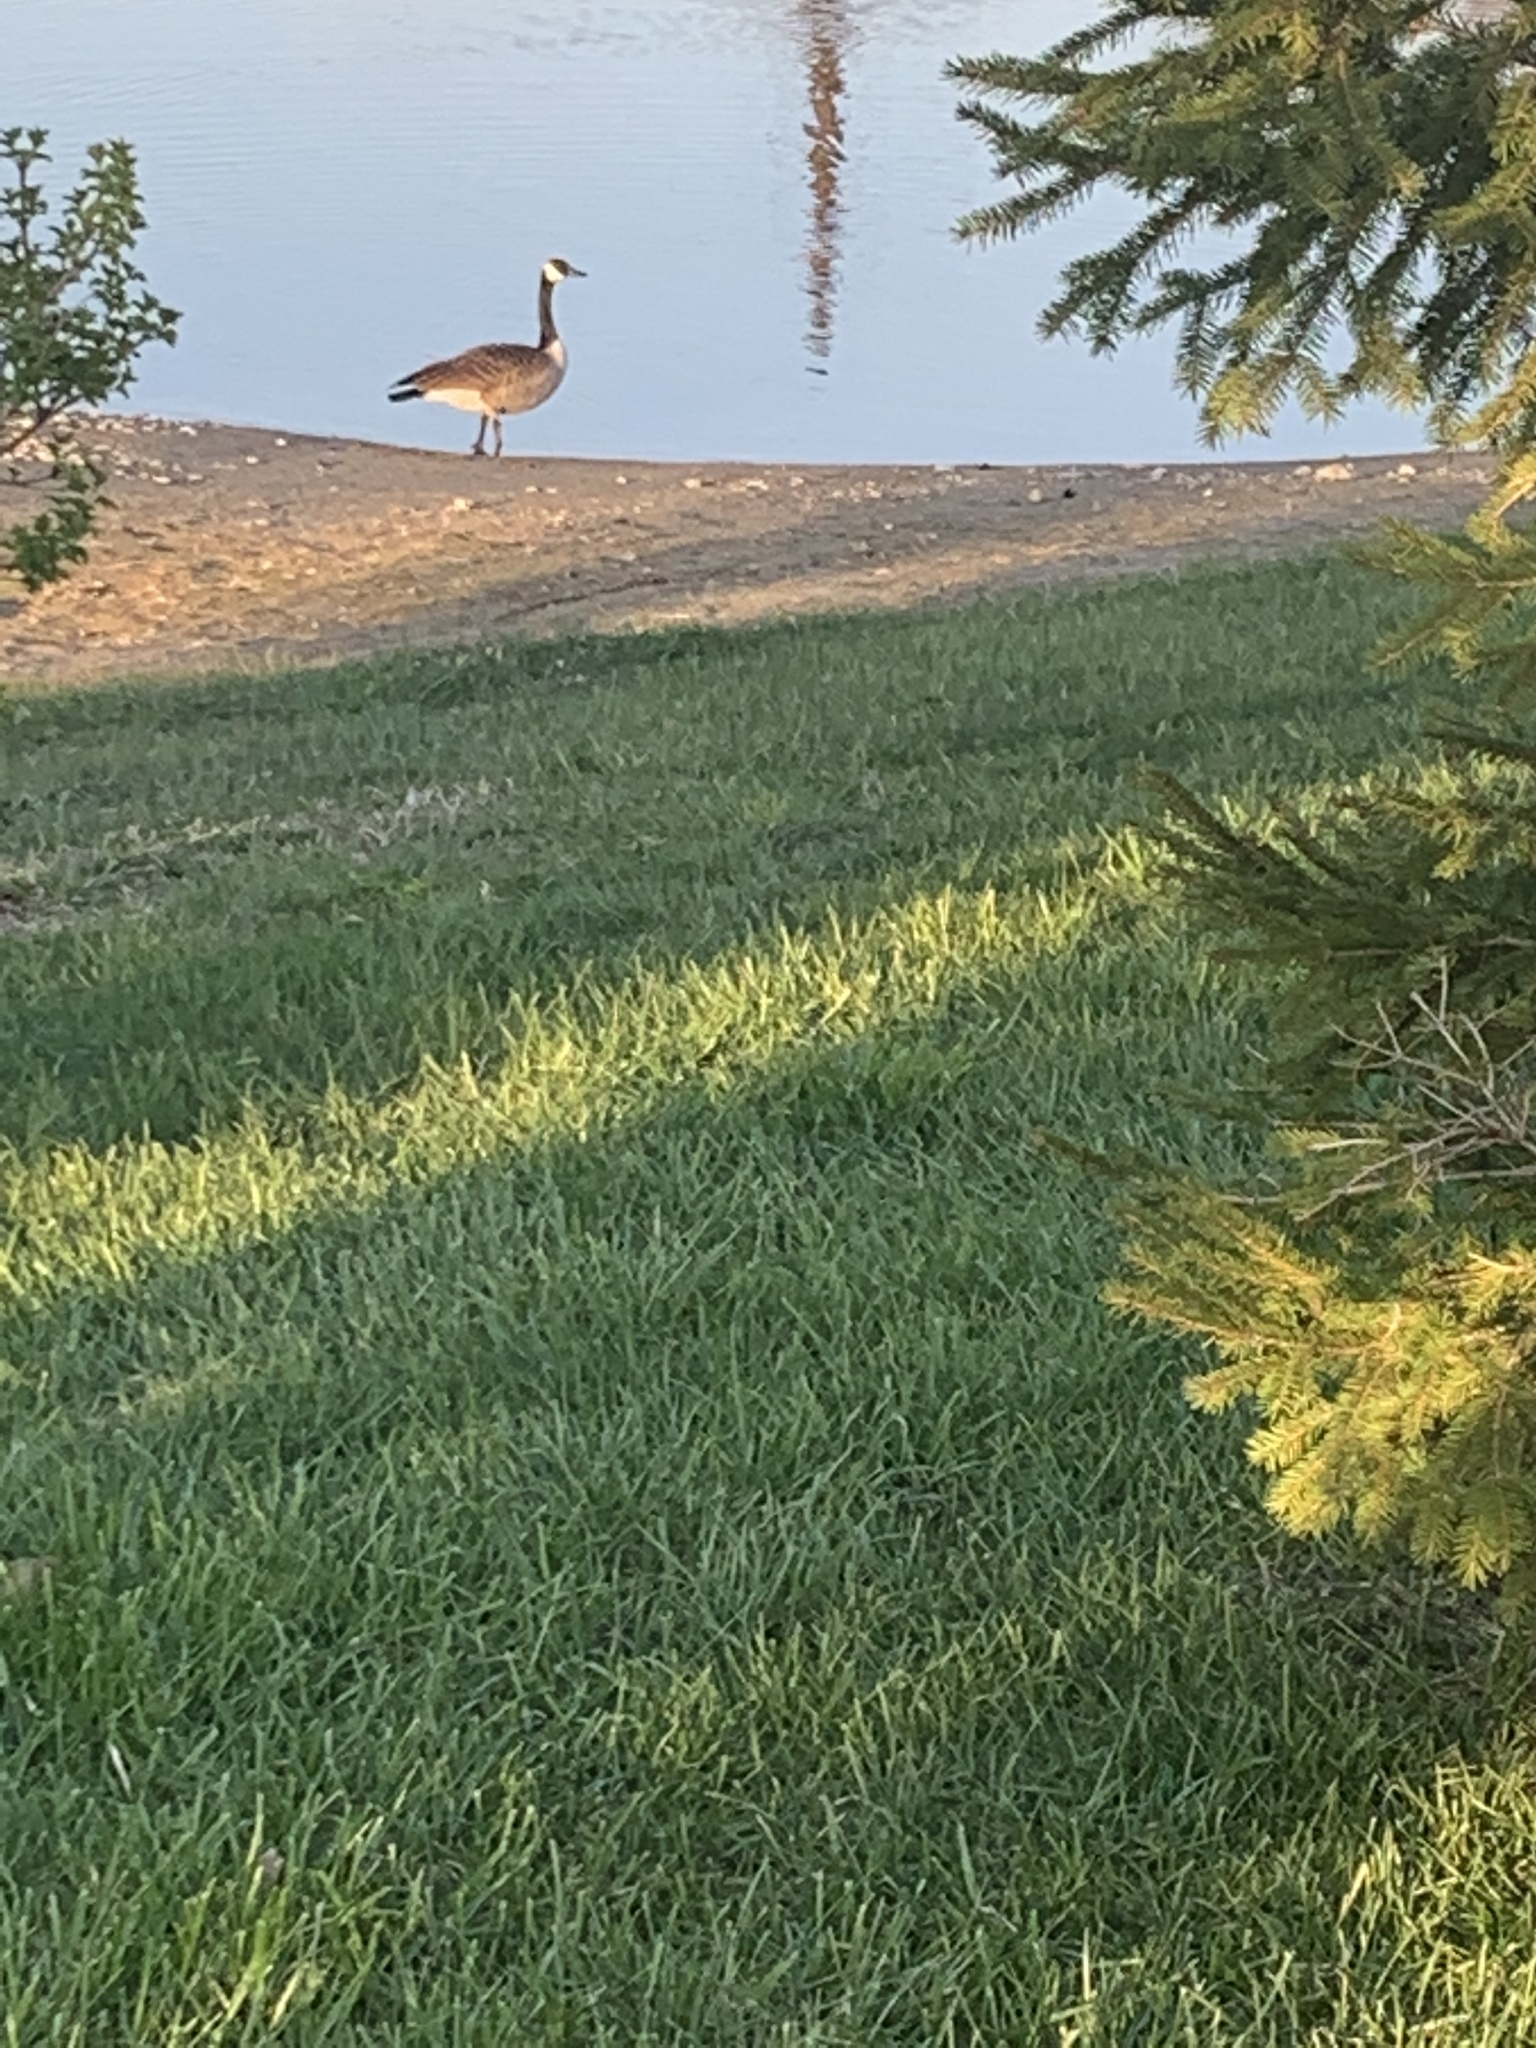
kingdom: Animalia
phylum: Chordata
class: Aves
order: Anseriformes
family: Anatidae
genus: Branta
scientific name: Branta canadensis
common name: Canada goose
